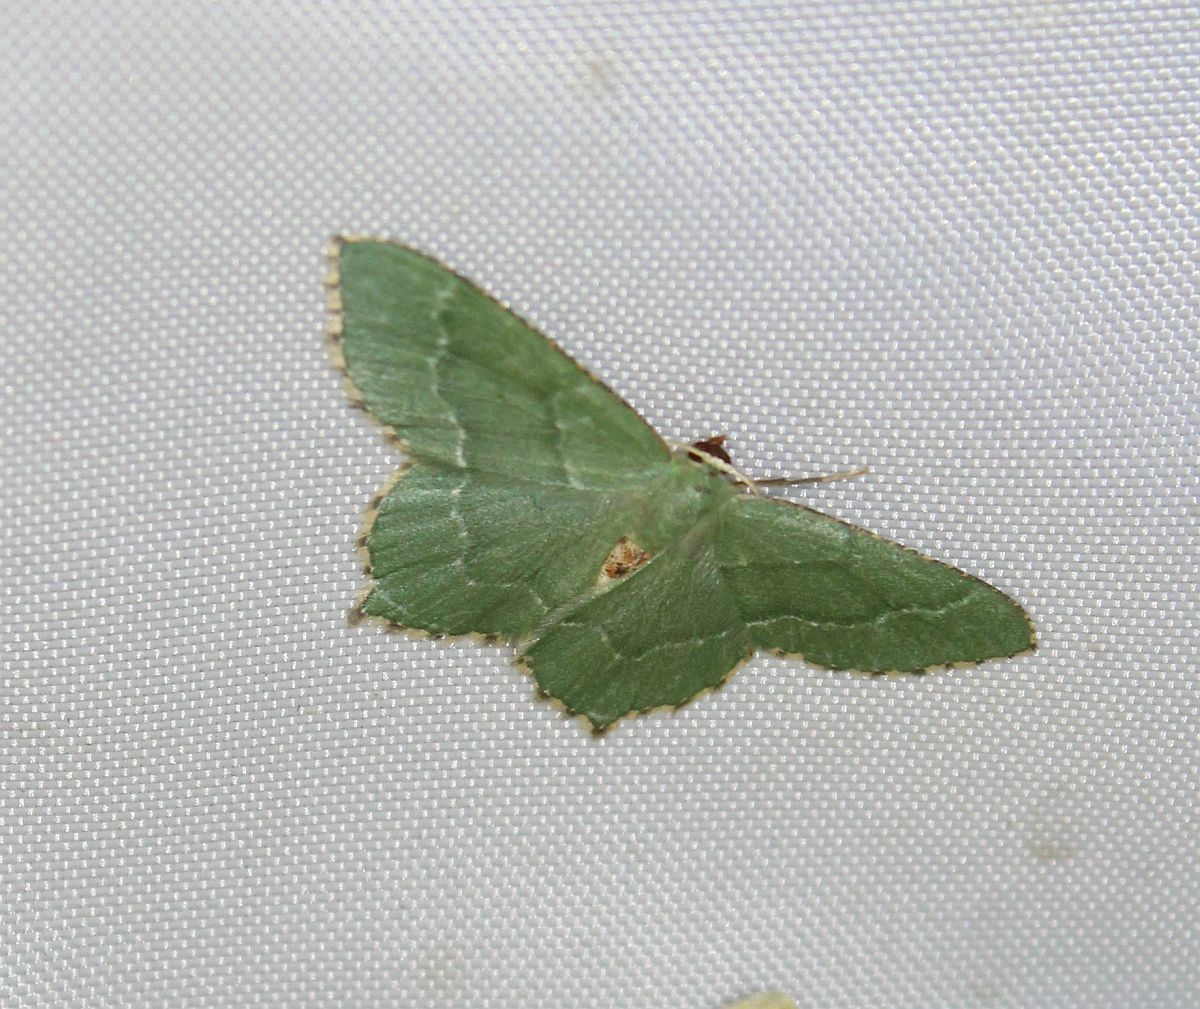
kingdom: Animalia
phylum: Arthropoda
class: Insecta
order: Lepidoptera
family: Geometridae
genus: Hemithea
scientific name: Hemithea aestivaria
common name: Common emerald
